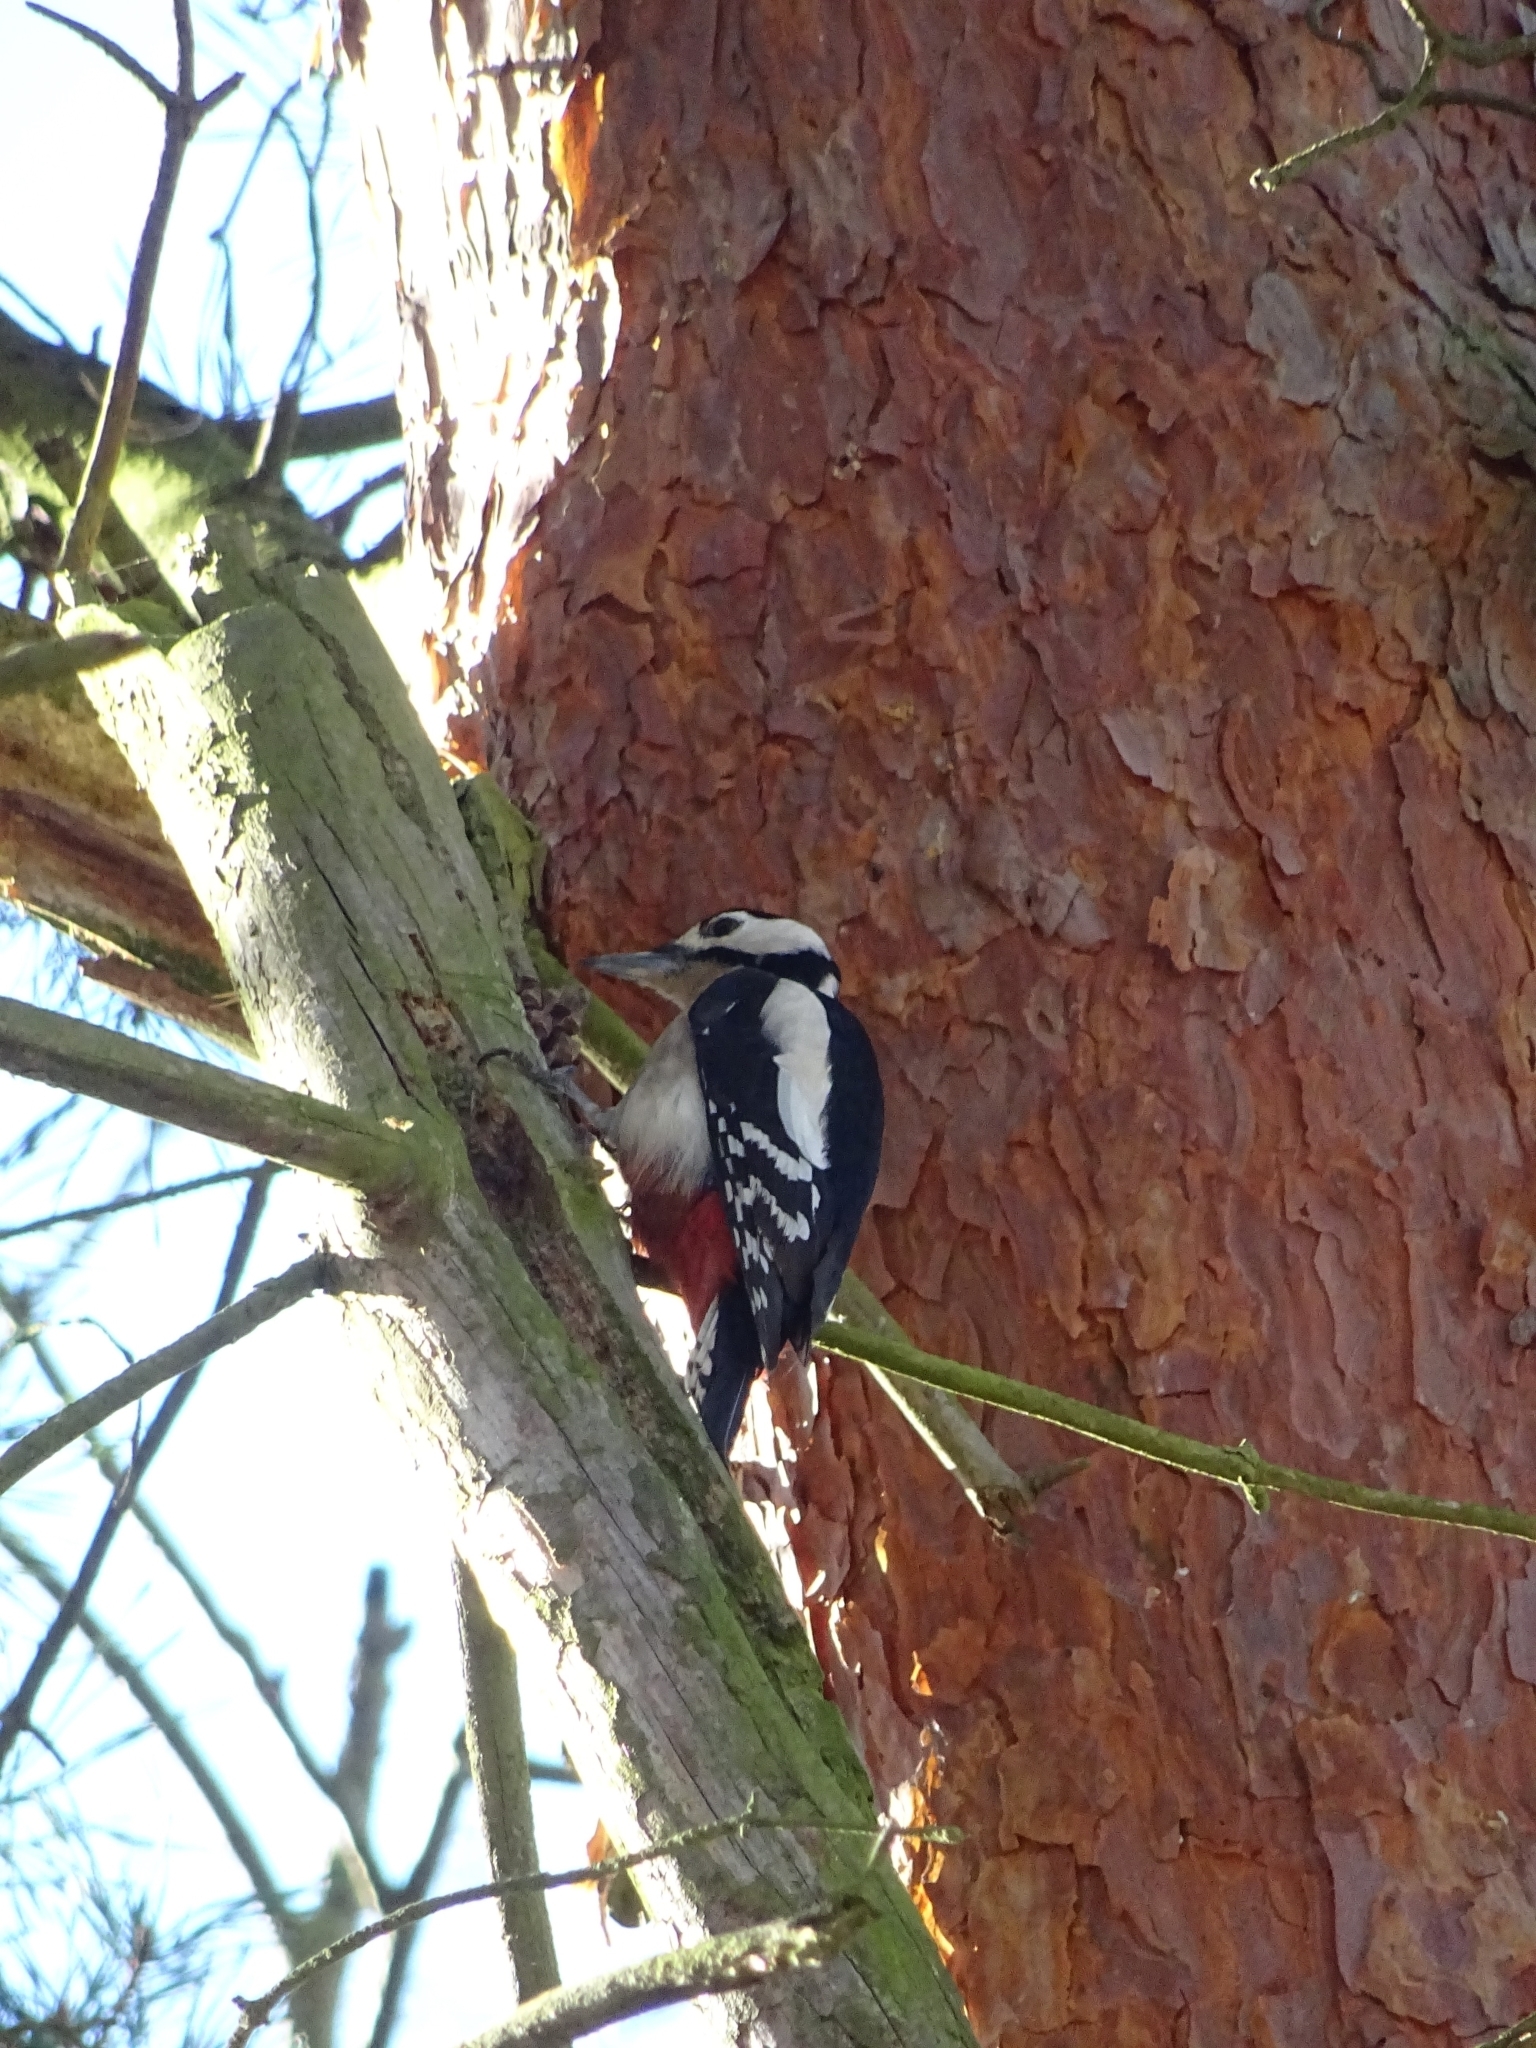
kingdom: Animalia
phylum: Chordata
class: Aves
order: Piciformes
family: Picidae
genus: Dendrocopos
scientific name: Dendrocopos major
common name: Great spotted woodpecker
